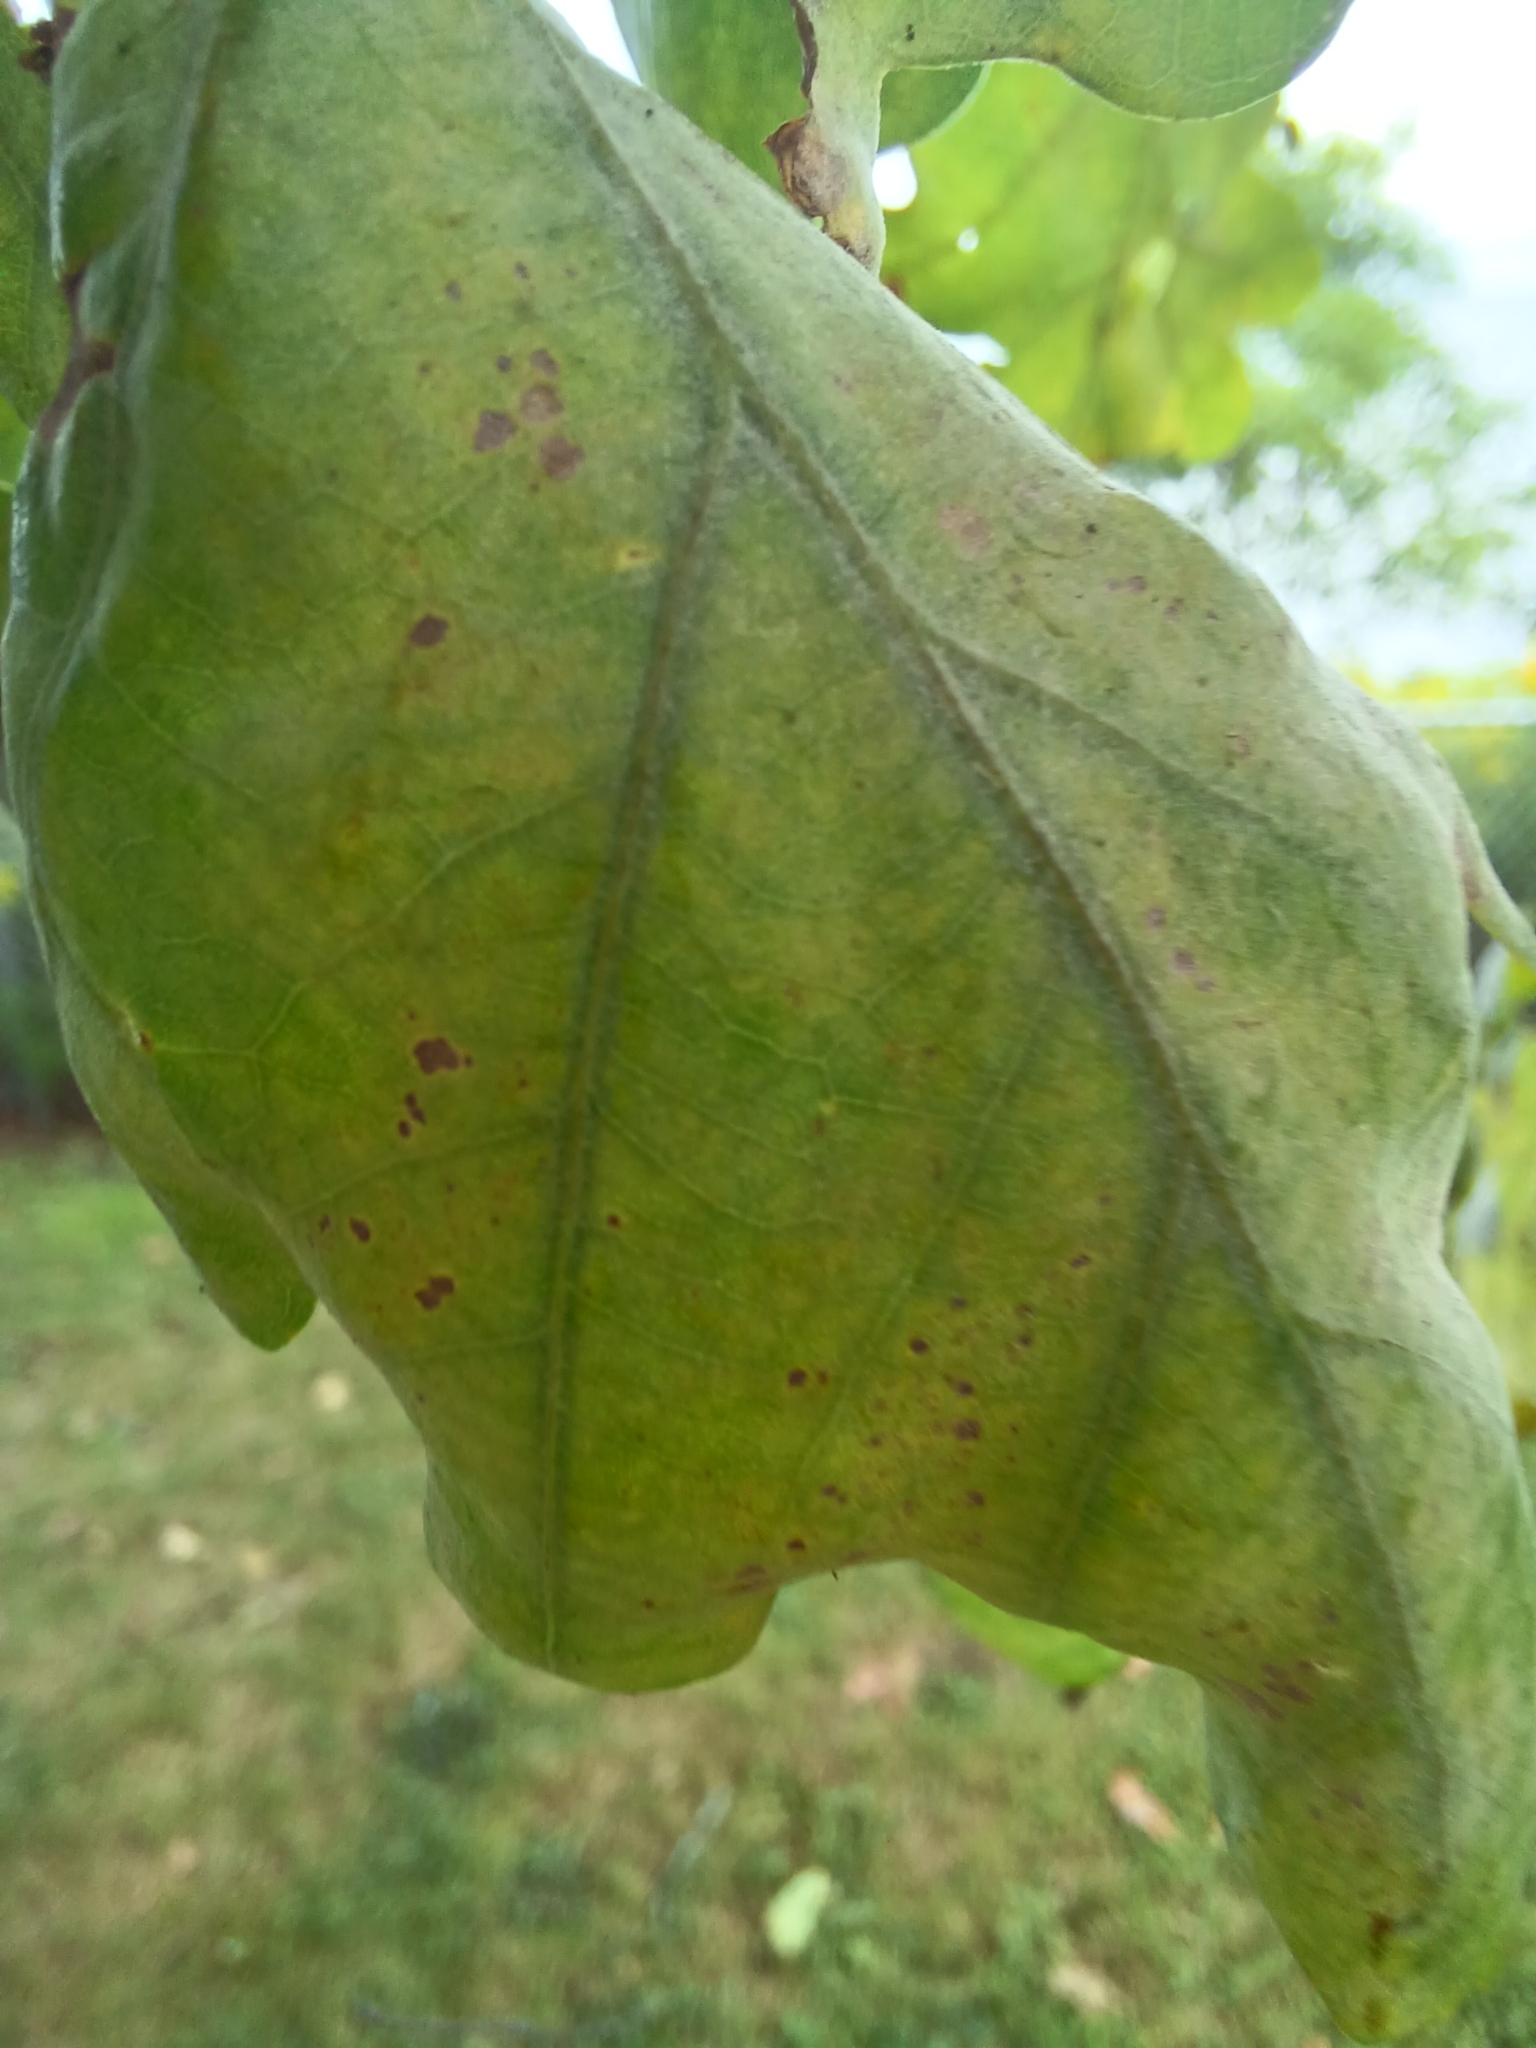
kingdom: Animalia
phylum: Arthropoda
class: Insecta
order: Hymenoptera
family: Cynipidae
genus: Neuroterus
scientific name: Neuroterus anthracinus
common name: Oyster gall
